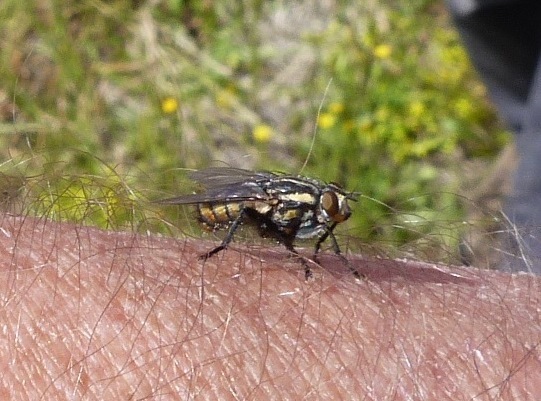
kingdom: Animalia
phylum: Arthropoda
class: Insecta
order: Diptera
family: Sarcophagidae
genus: Oxysarcodexia
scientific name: Oxysarcodexia varia
